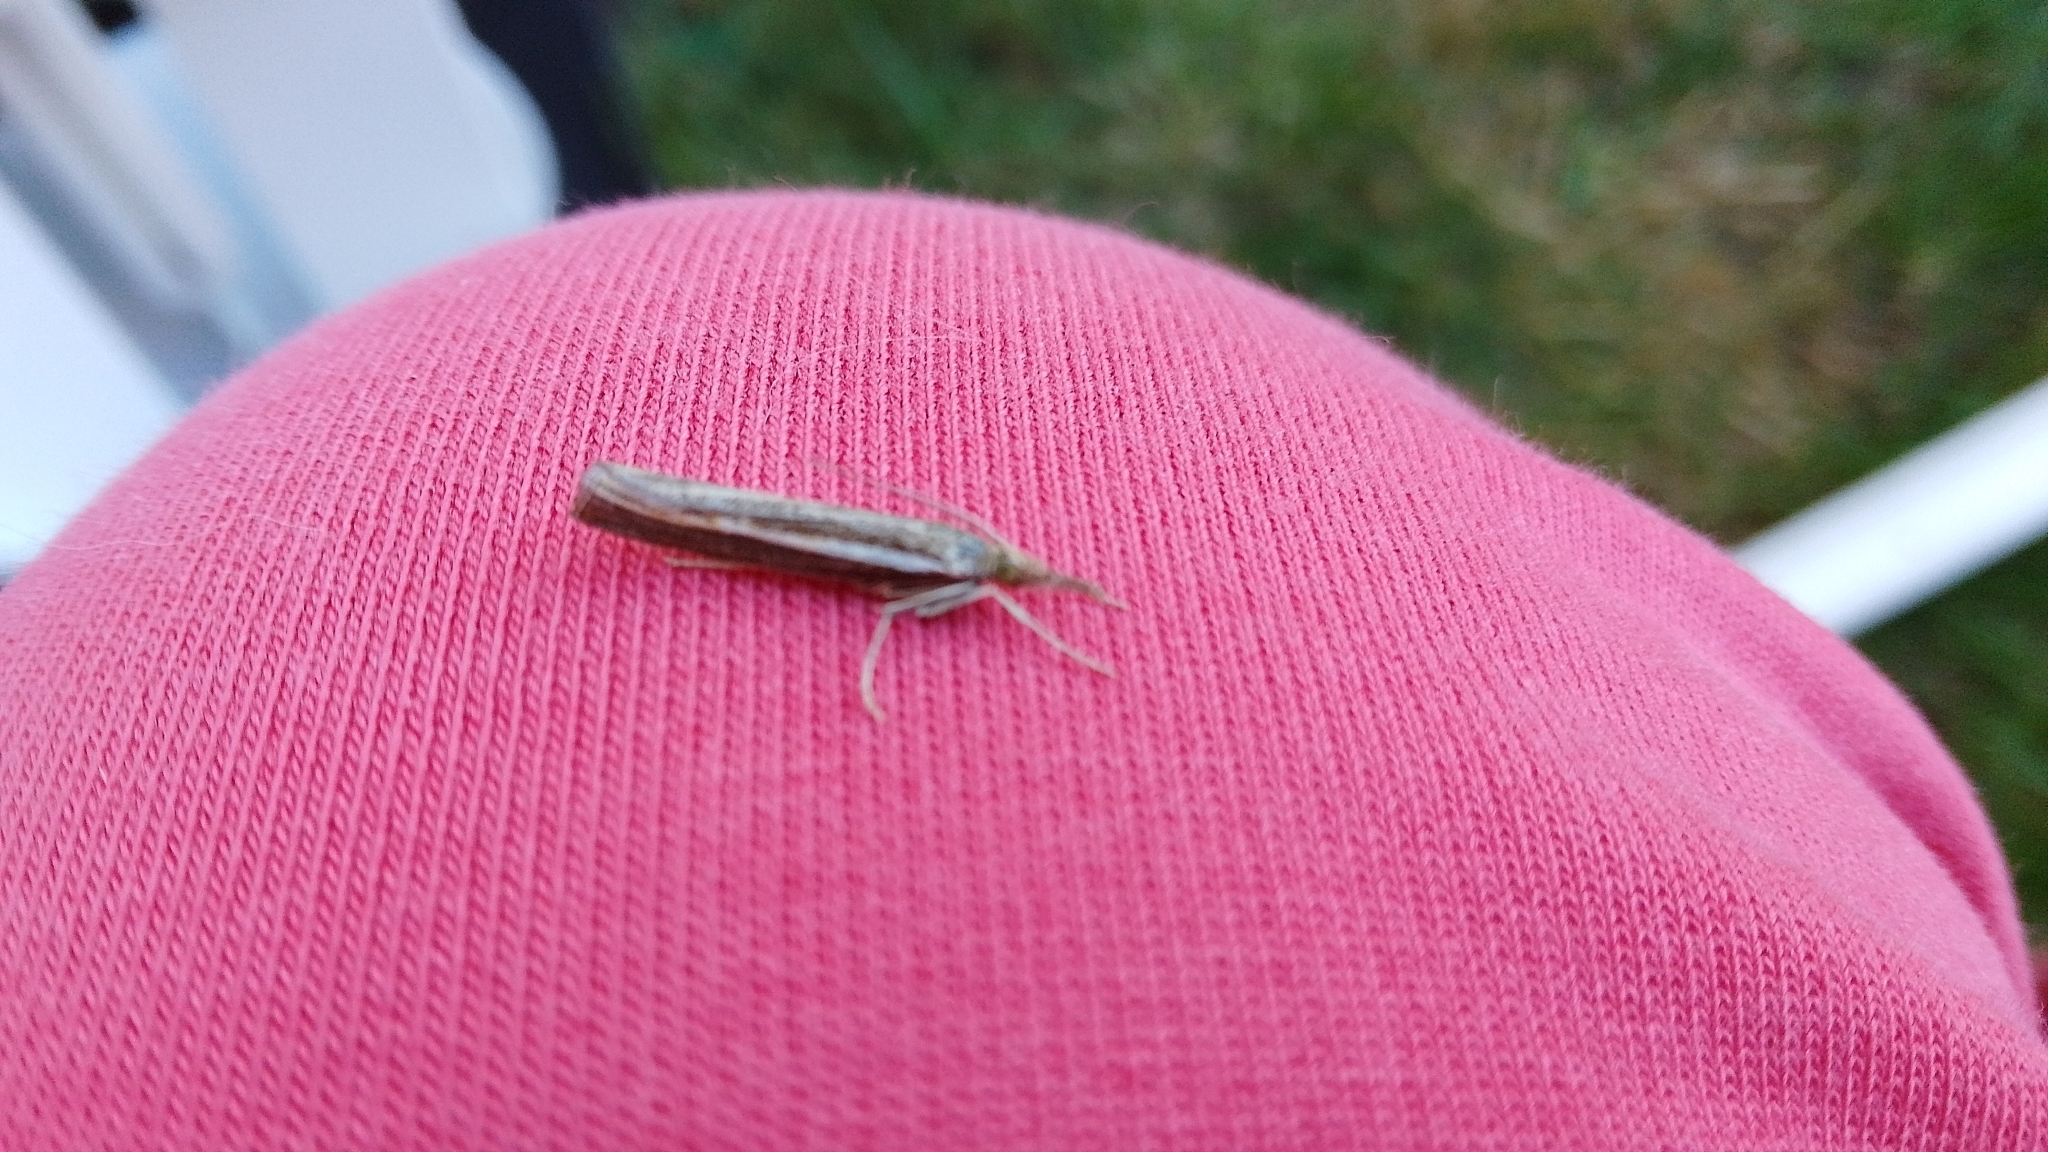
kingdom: Animalia
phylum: Arthropoda
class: Insecta
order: Lepidoptera
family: Crambidae
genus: Agriphila
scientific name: Agriphila tristellus
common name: Common grass-veneer
